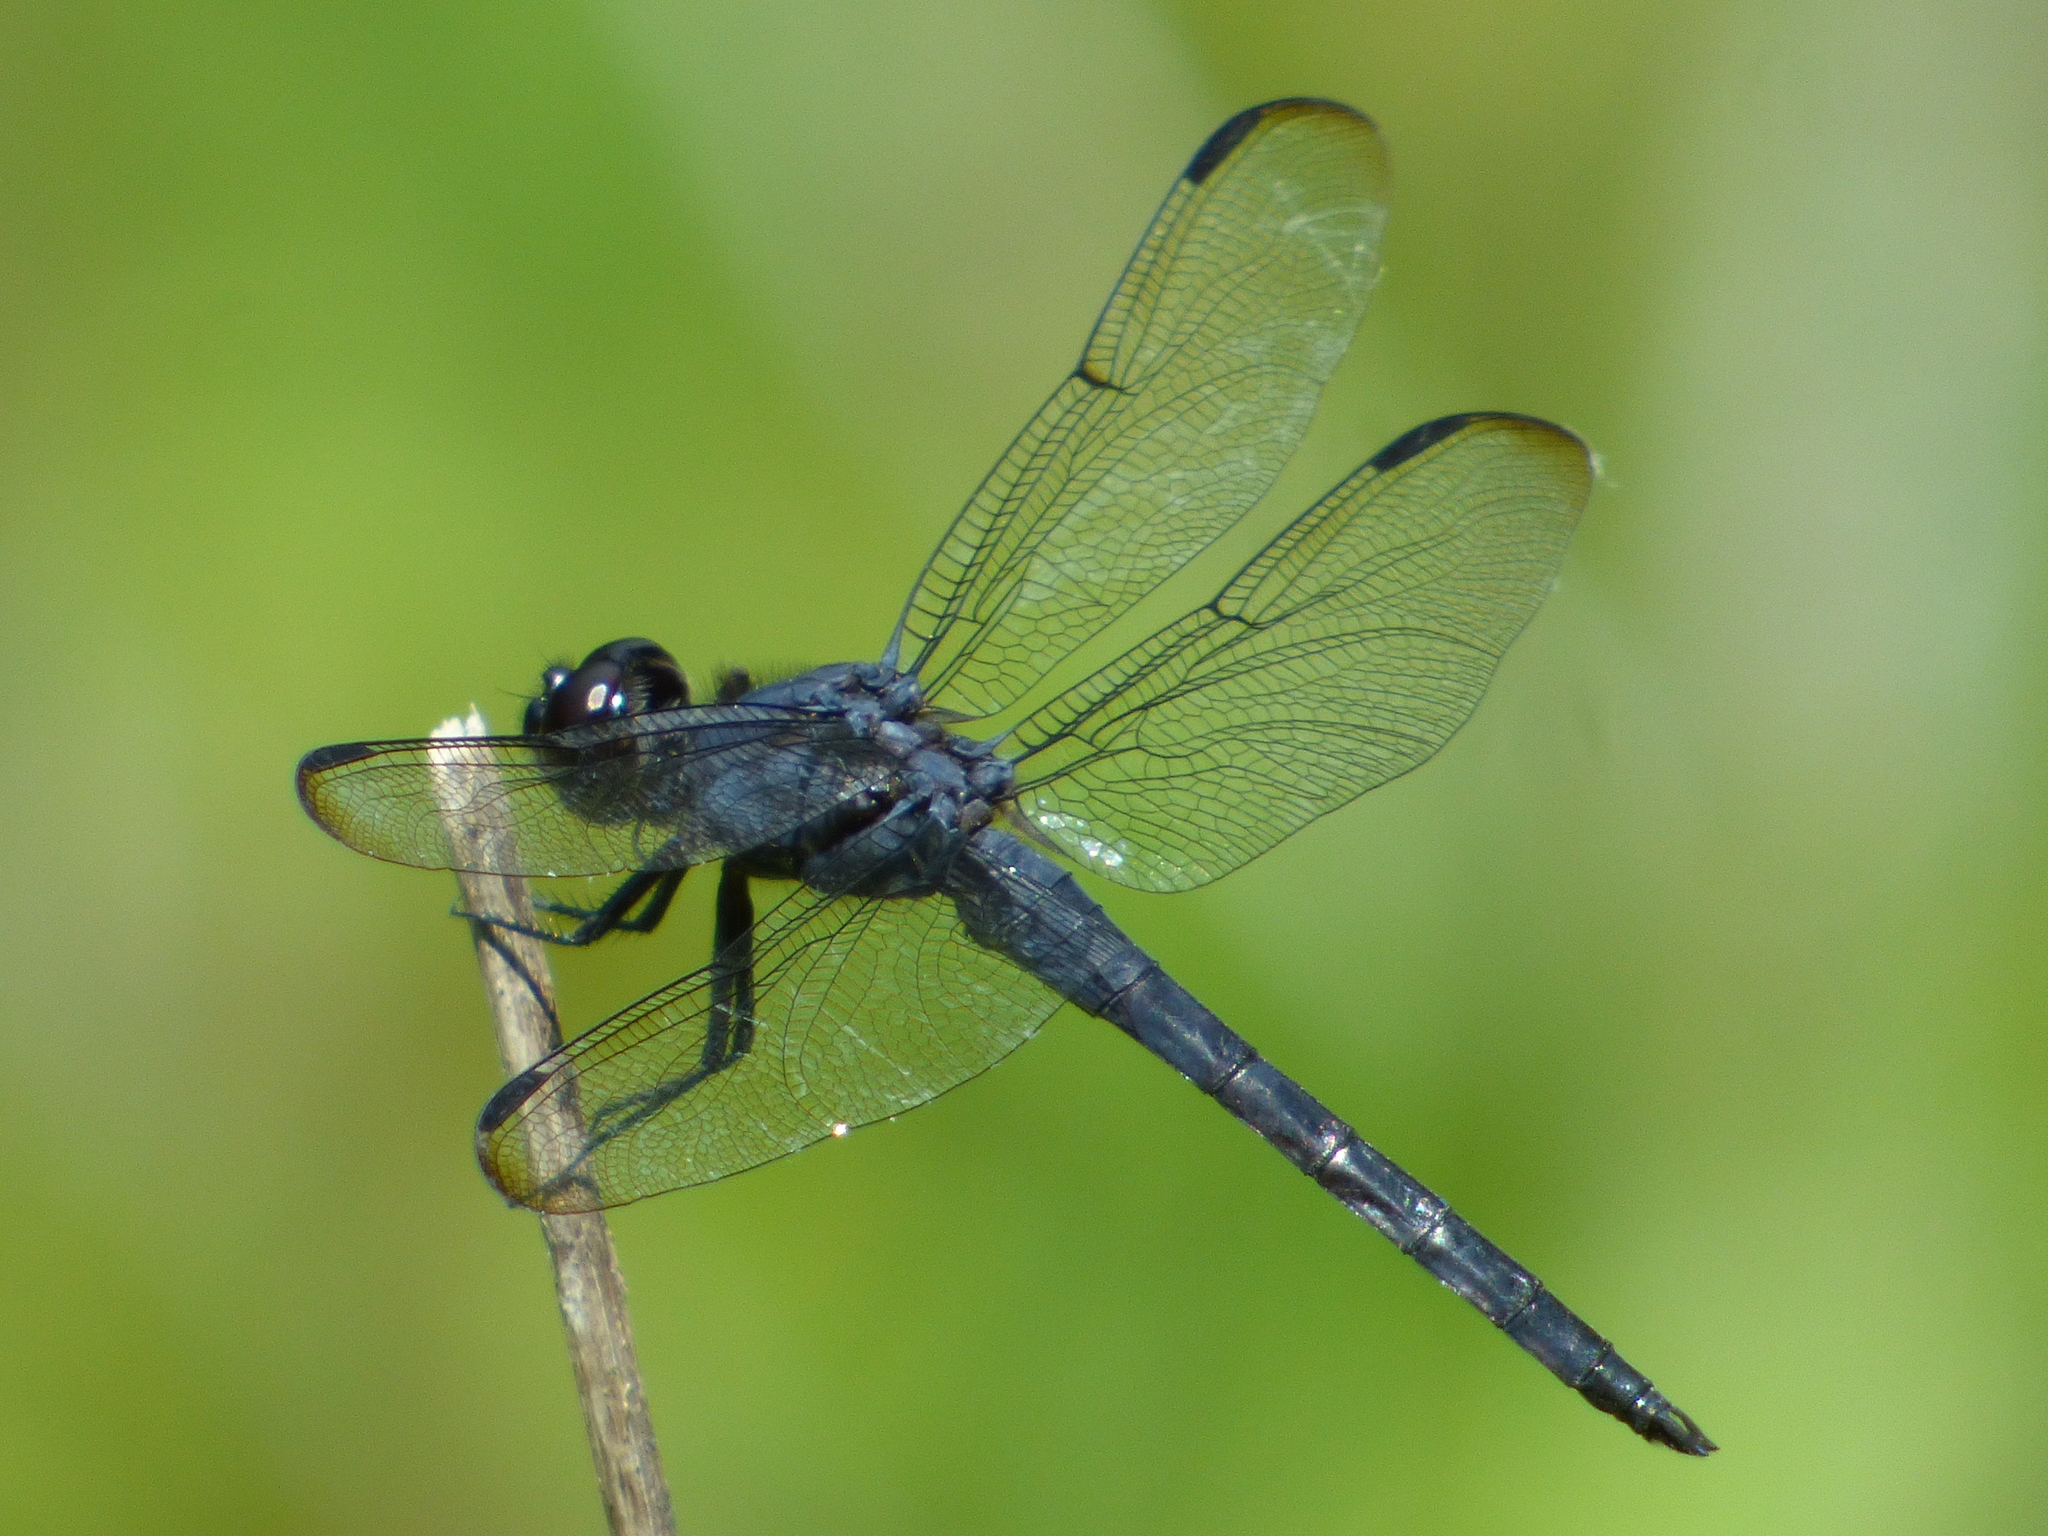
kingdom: Animalia
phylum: Arthropoda
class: Insecta
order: Odonata
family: Libellulidae
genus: Libellula
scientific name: Libellula incesta
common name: Slaty skimmer
